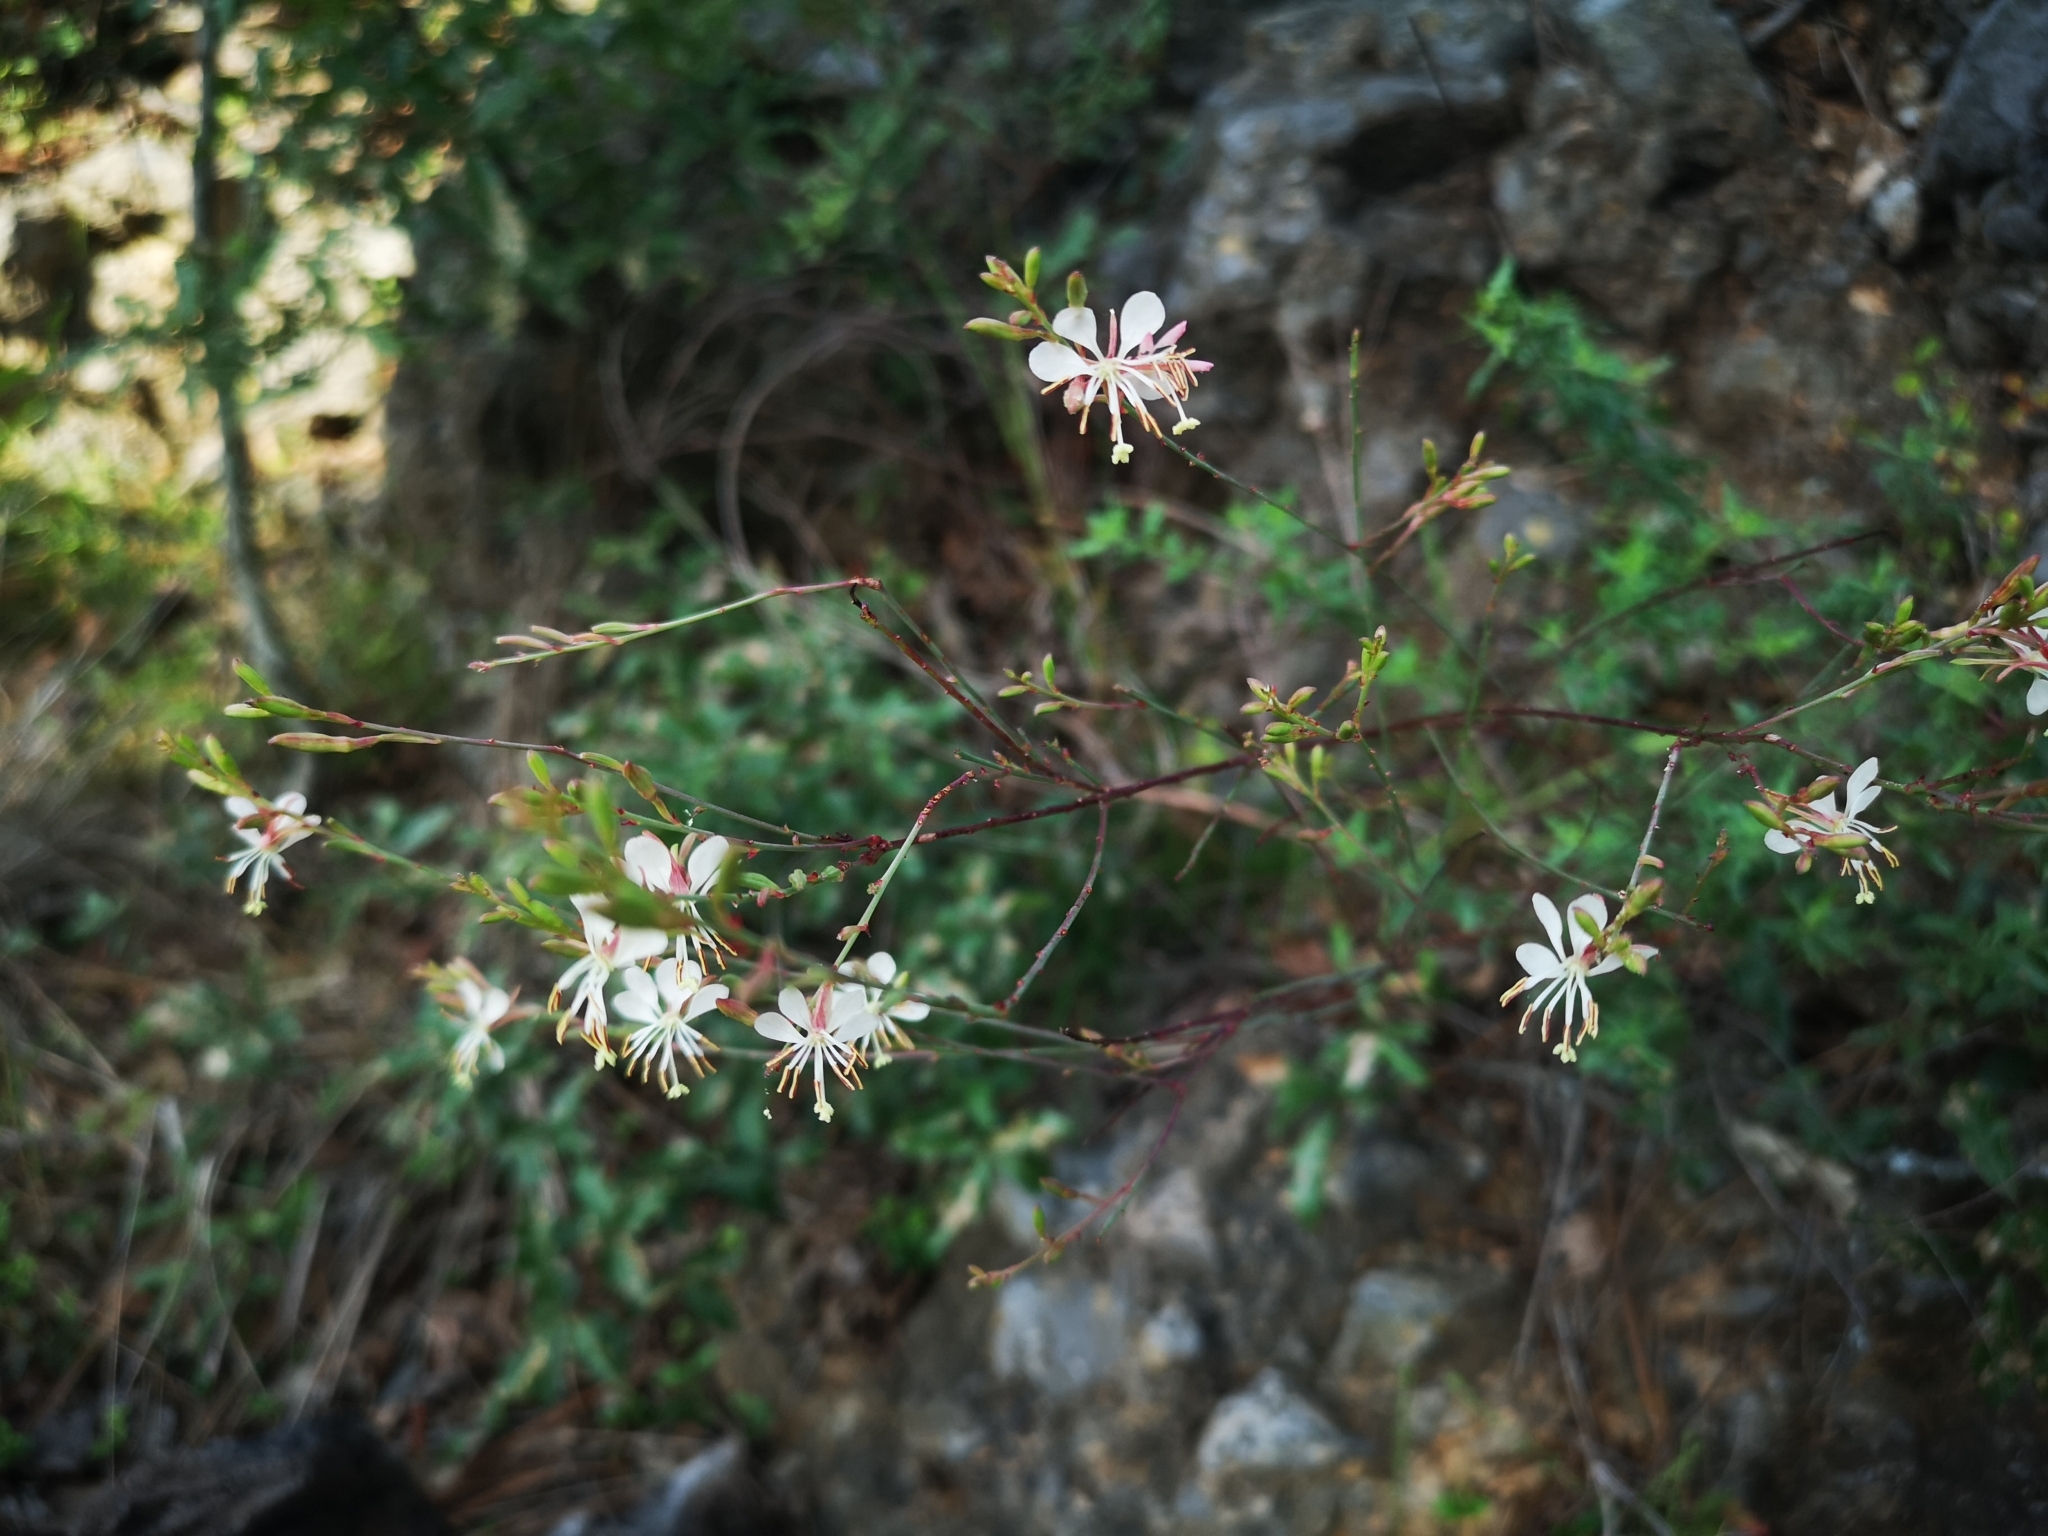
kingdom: Plantae
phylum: Tracheophyta
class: Magnoliopsida
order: Myrtales
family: Onagraceae
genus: Oenothera
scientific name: Oenothera suffrutescens
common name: Scarlet beeblossom
